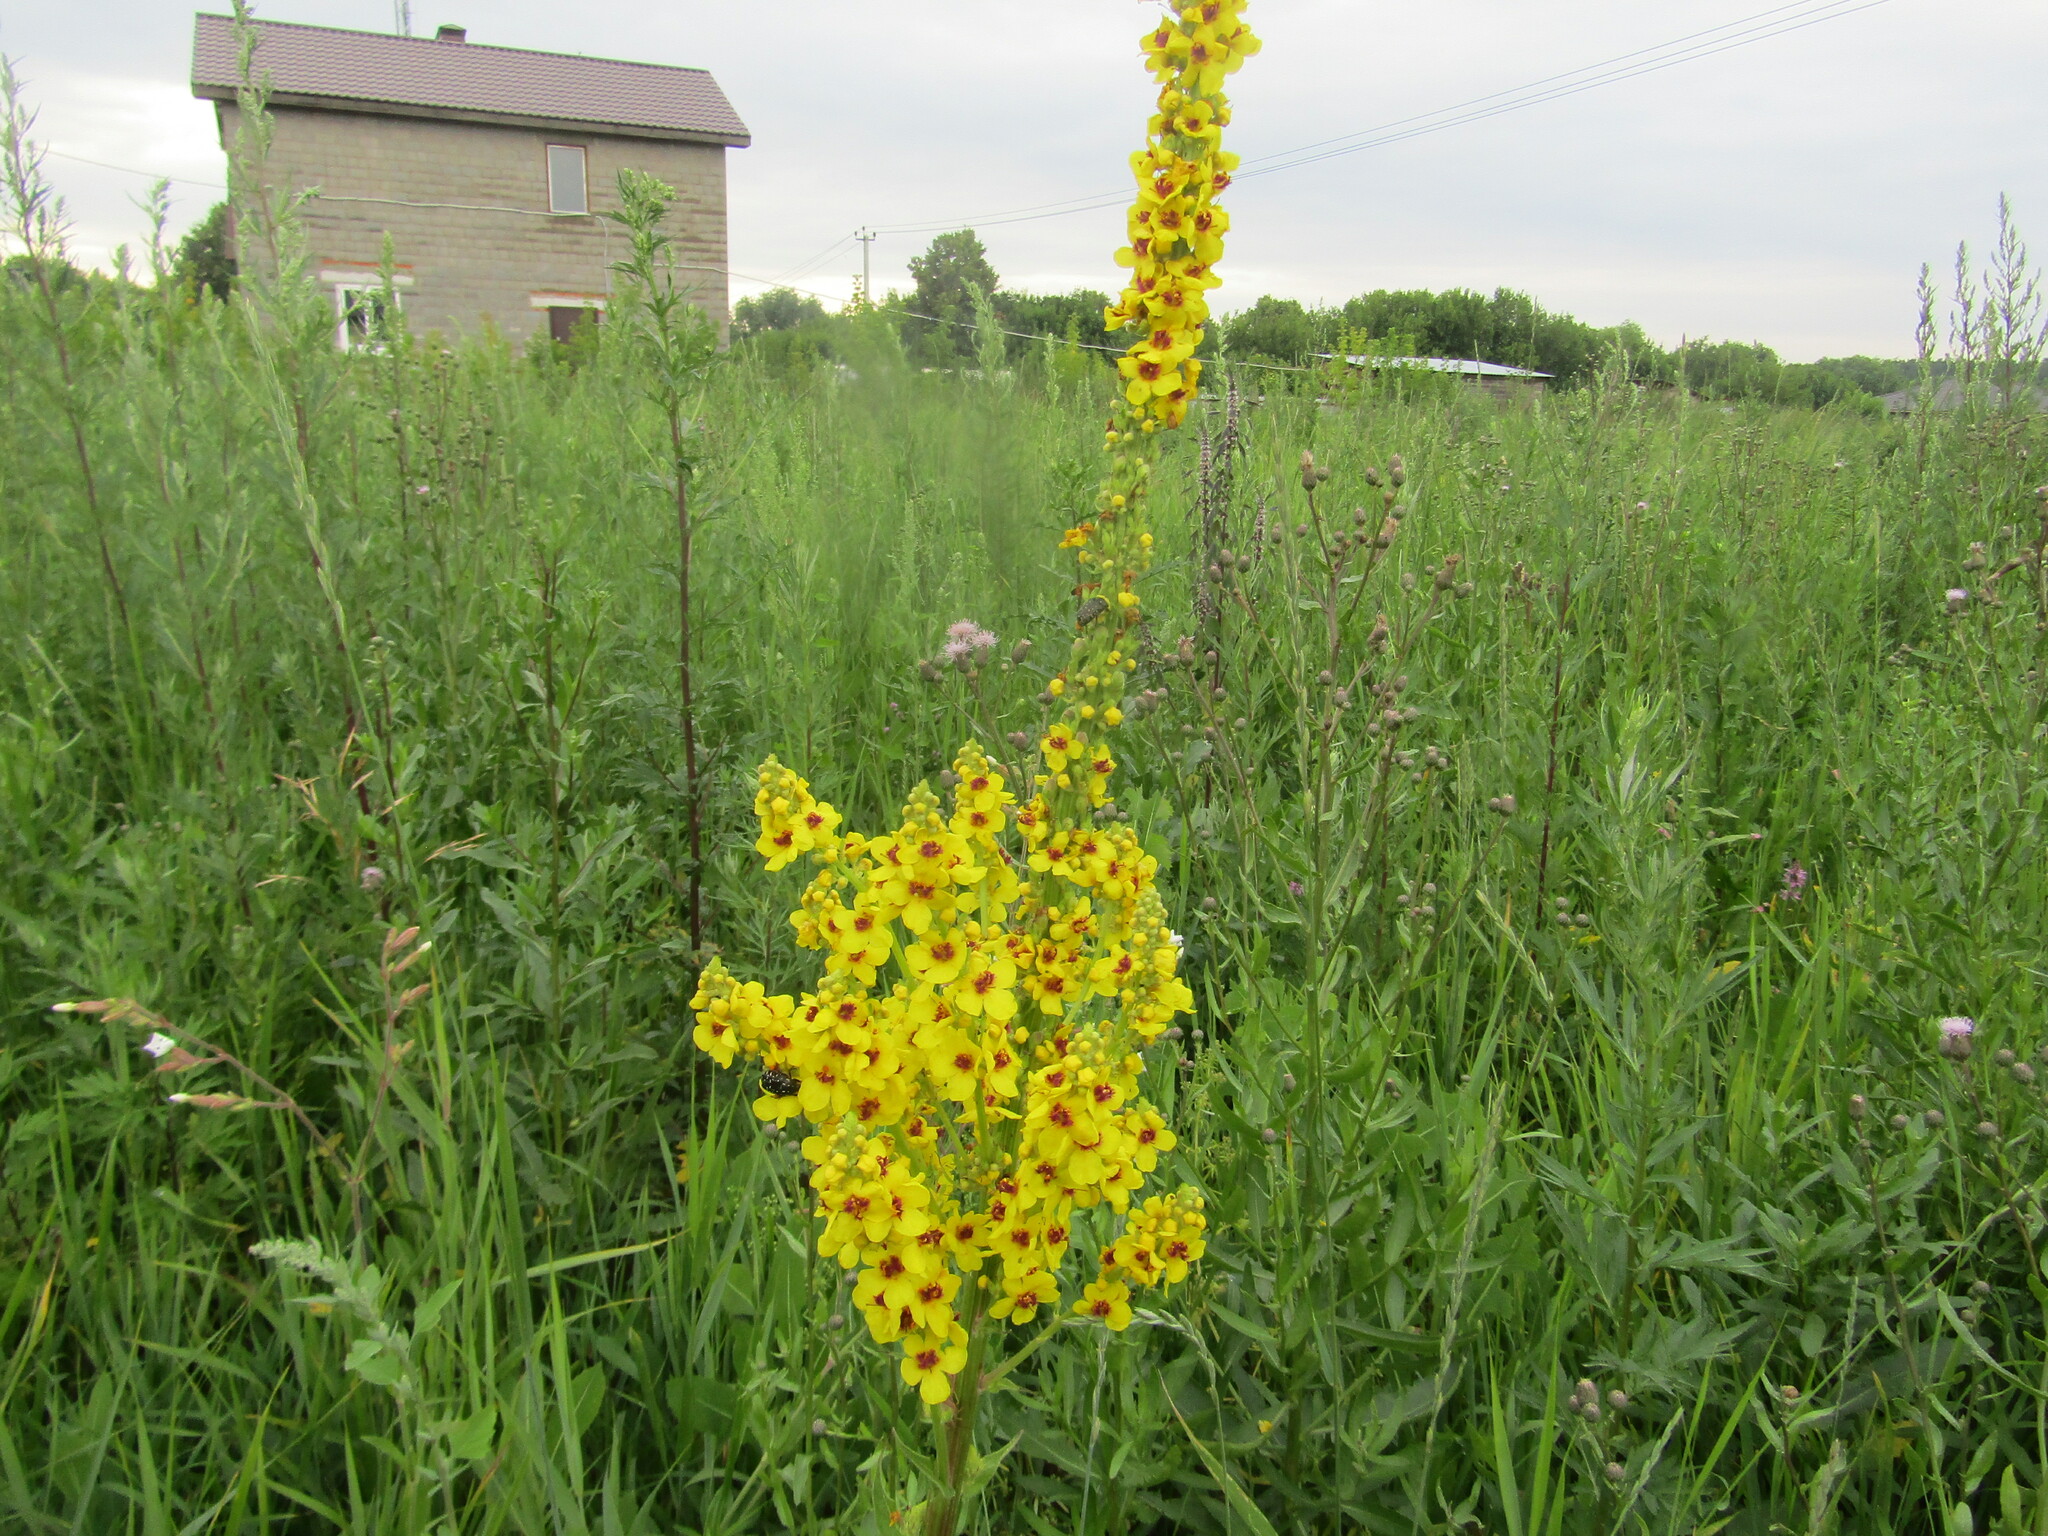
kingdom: Plantae
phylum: Tracheophyta
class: Magnoliopsida
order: Lamiales
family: Scrophulariaceae
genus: Verbascum
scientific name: Verbascum nigrum
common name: Dark mullein
